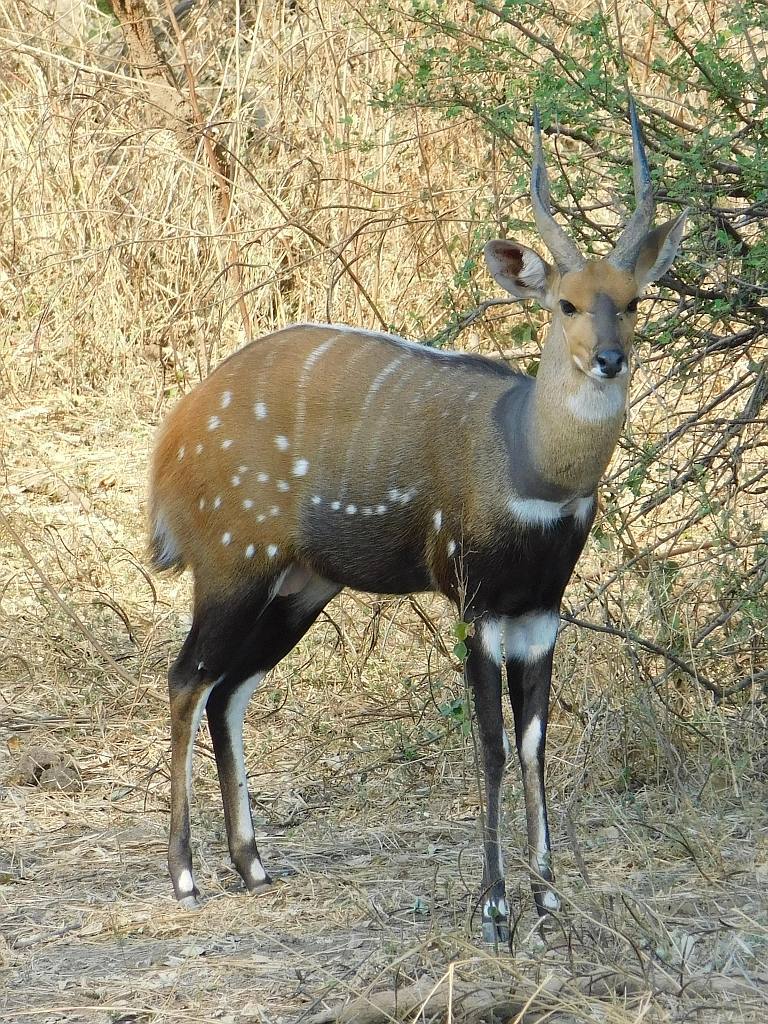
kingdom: Animalia
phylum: Chordata
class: Mammalia
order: Artiodactyla
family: Bovidae
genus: Tragelaphus
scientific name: Tragelaphus scriptus
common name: Bushbuck
